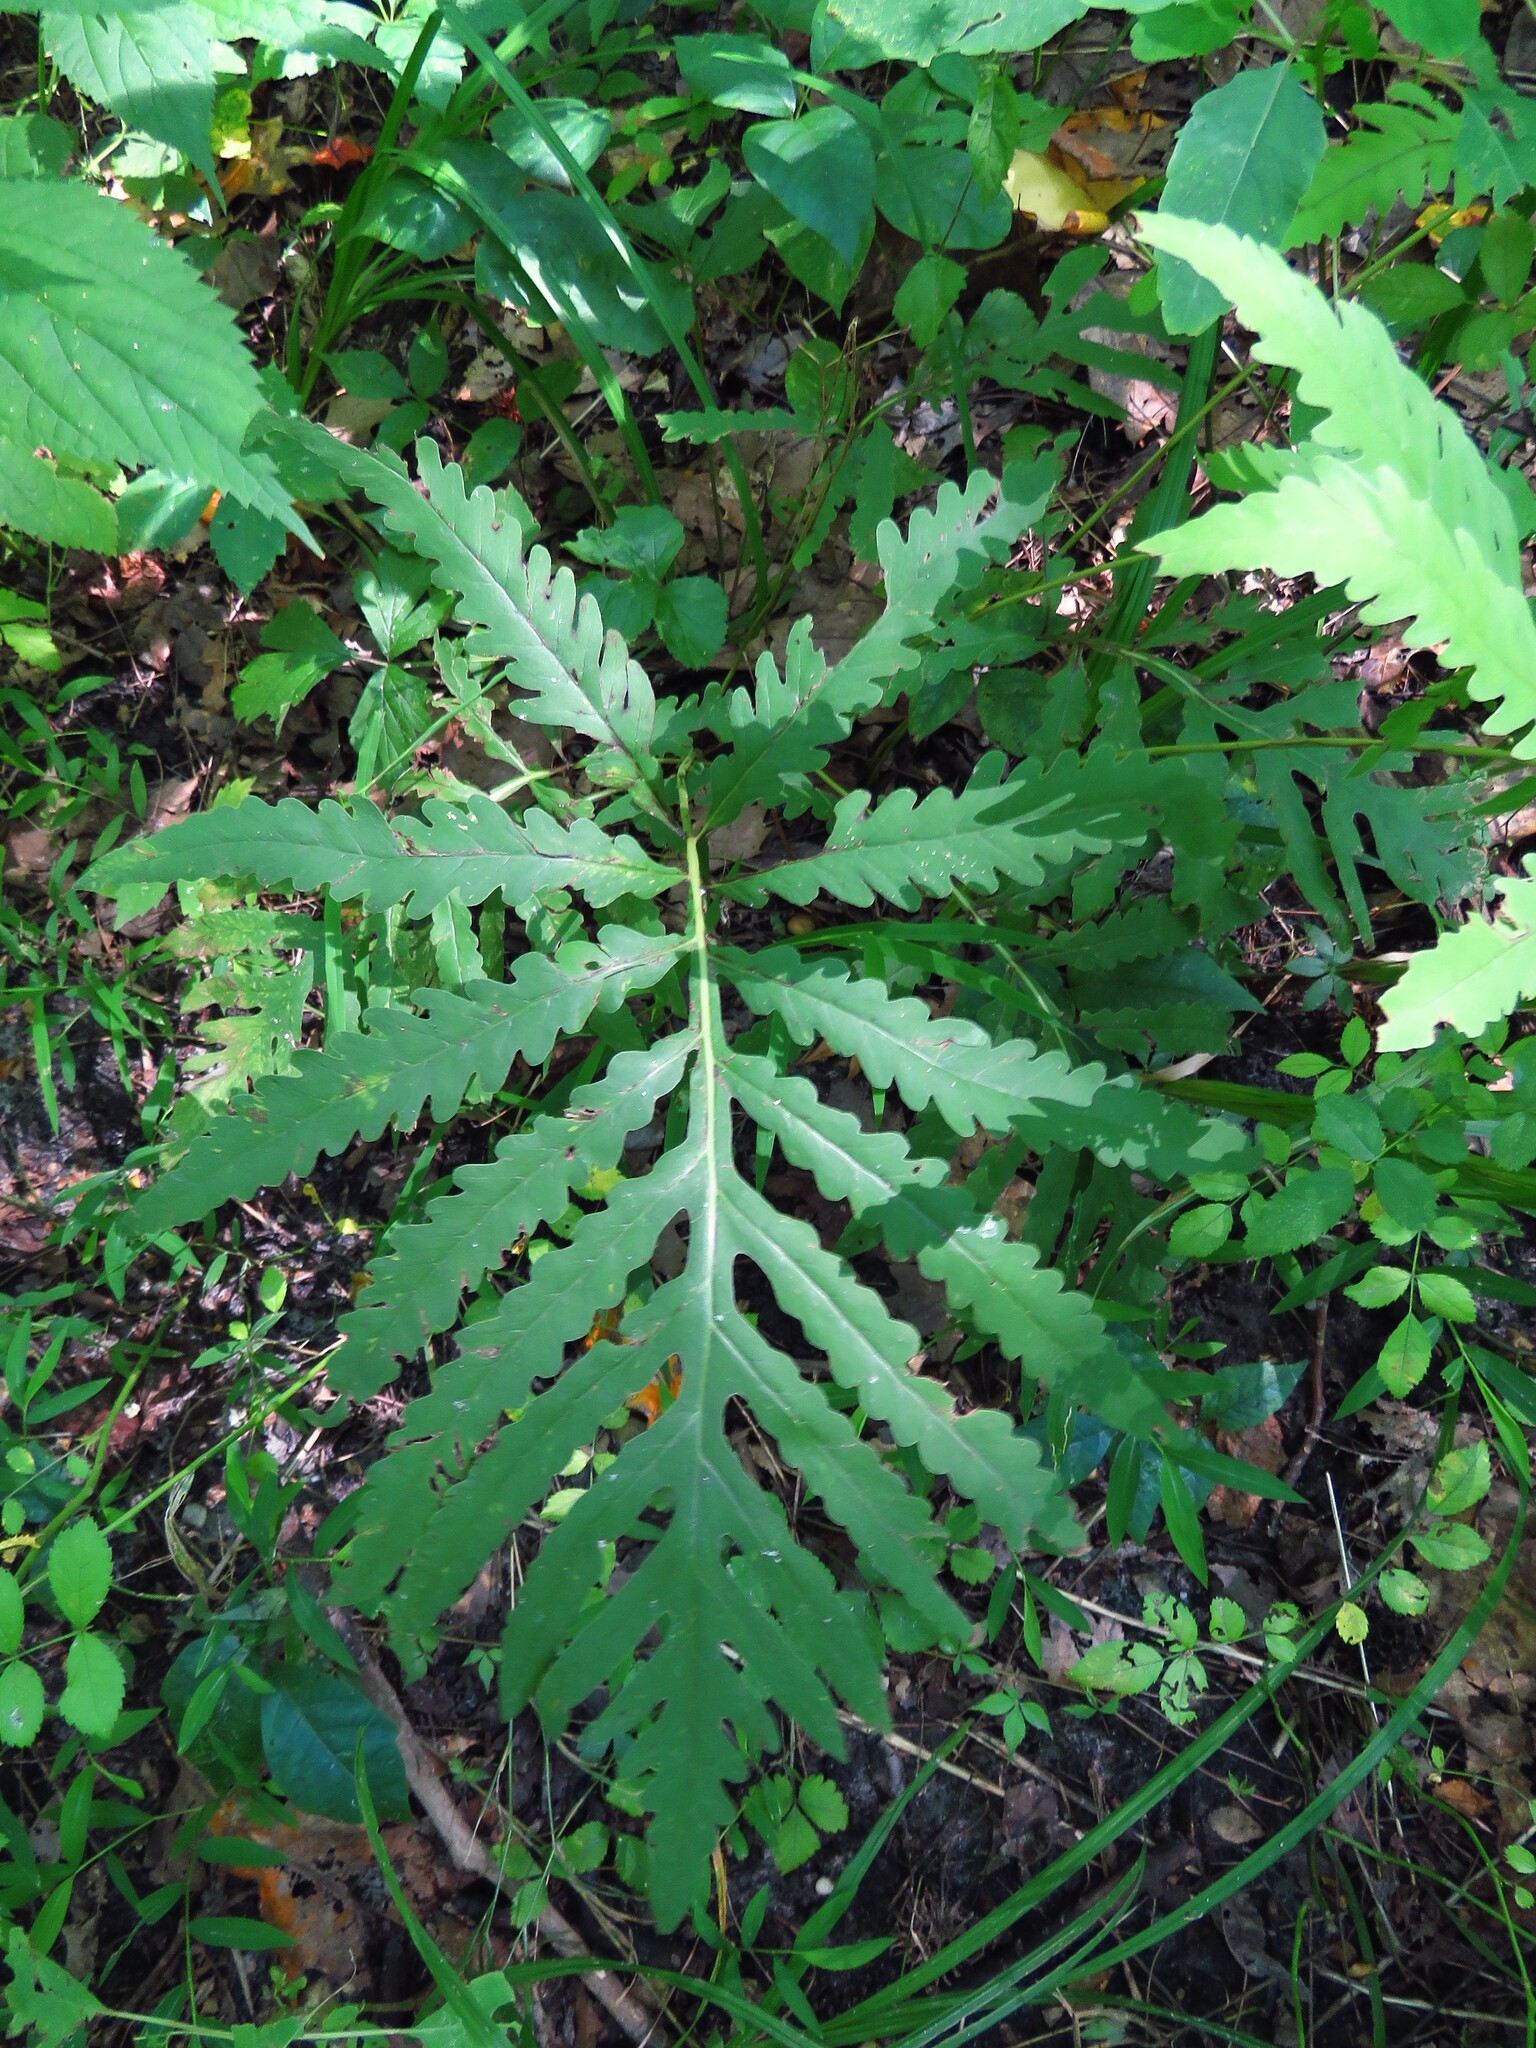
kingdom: Plantae
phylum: Tracheophyta
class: Polypodiopsida
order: Polypodiales
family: Onocleaceae
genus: Onoclea
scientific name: Onoclea sensibilis
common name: Sensitive fern
